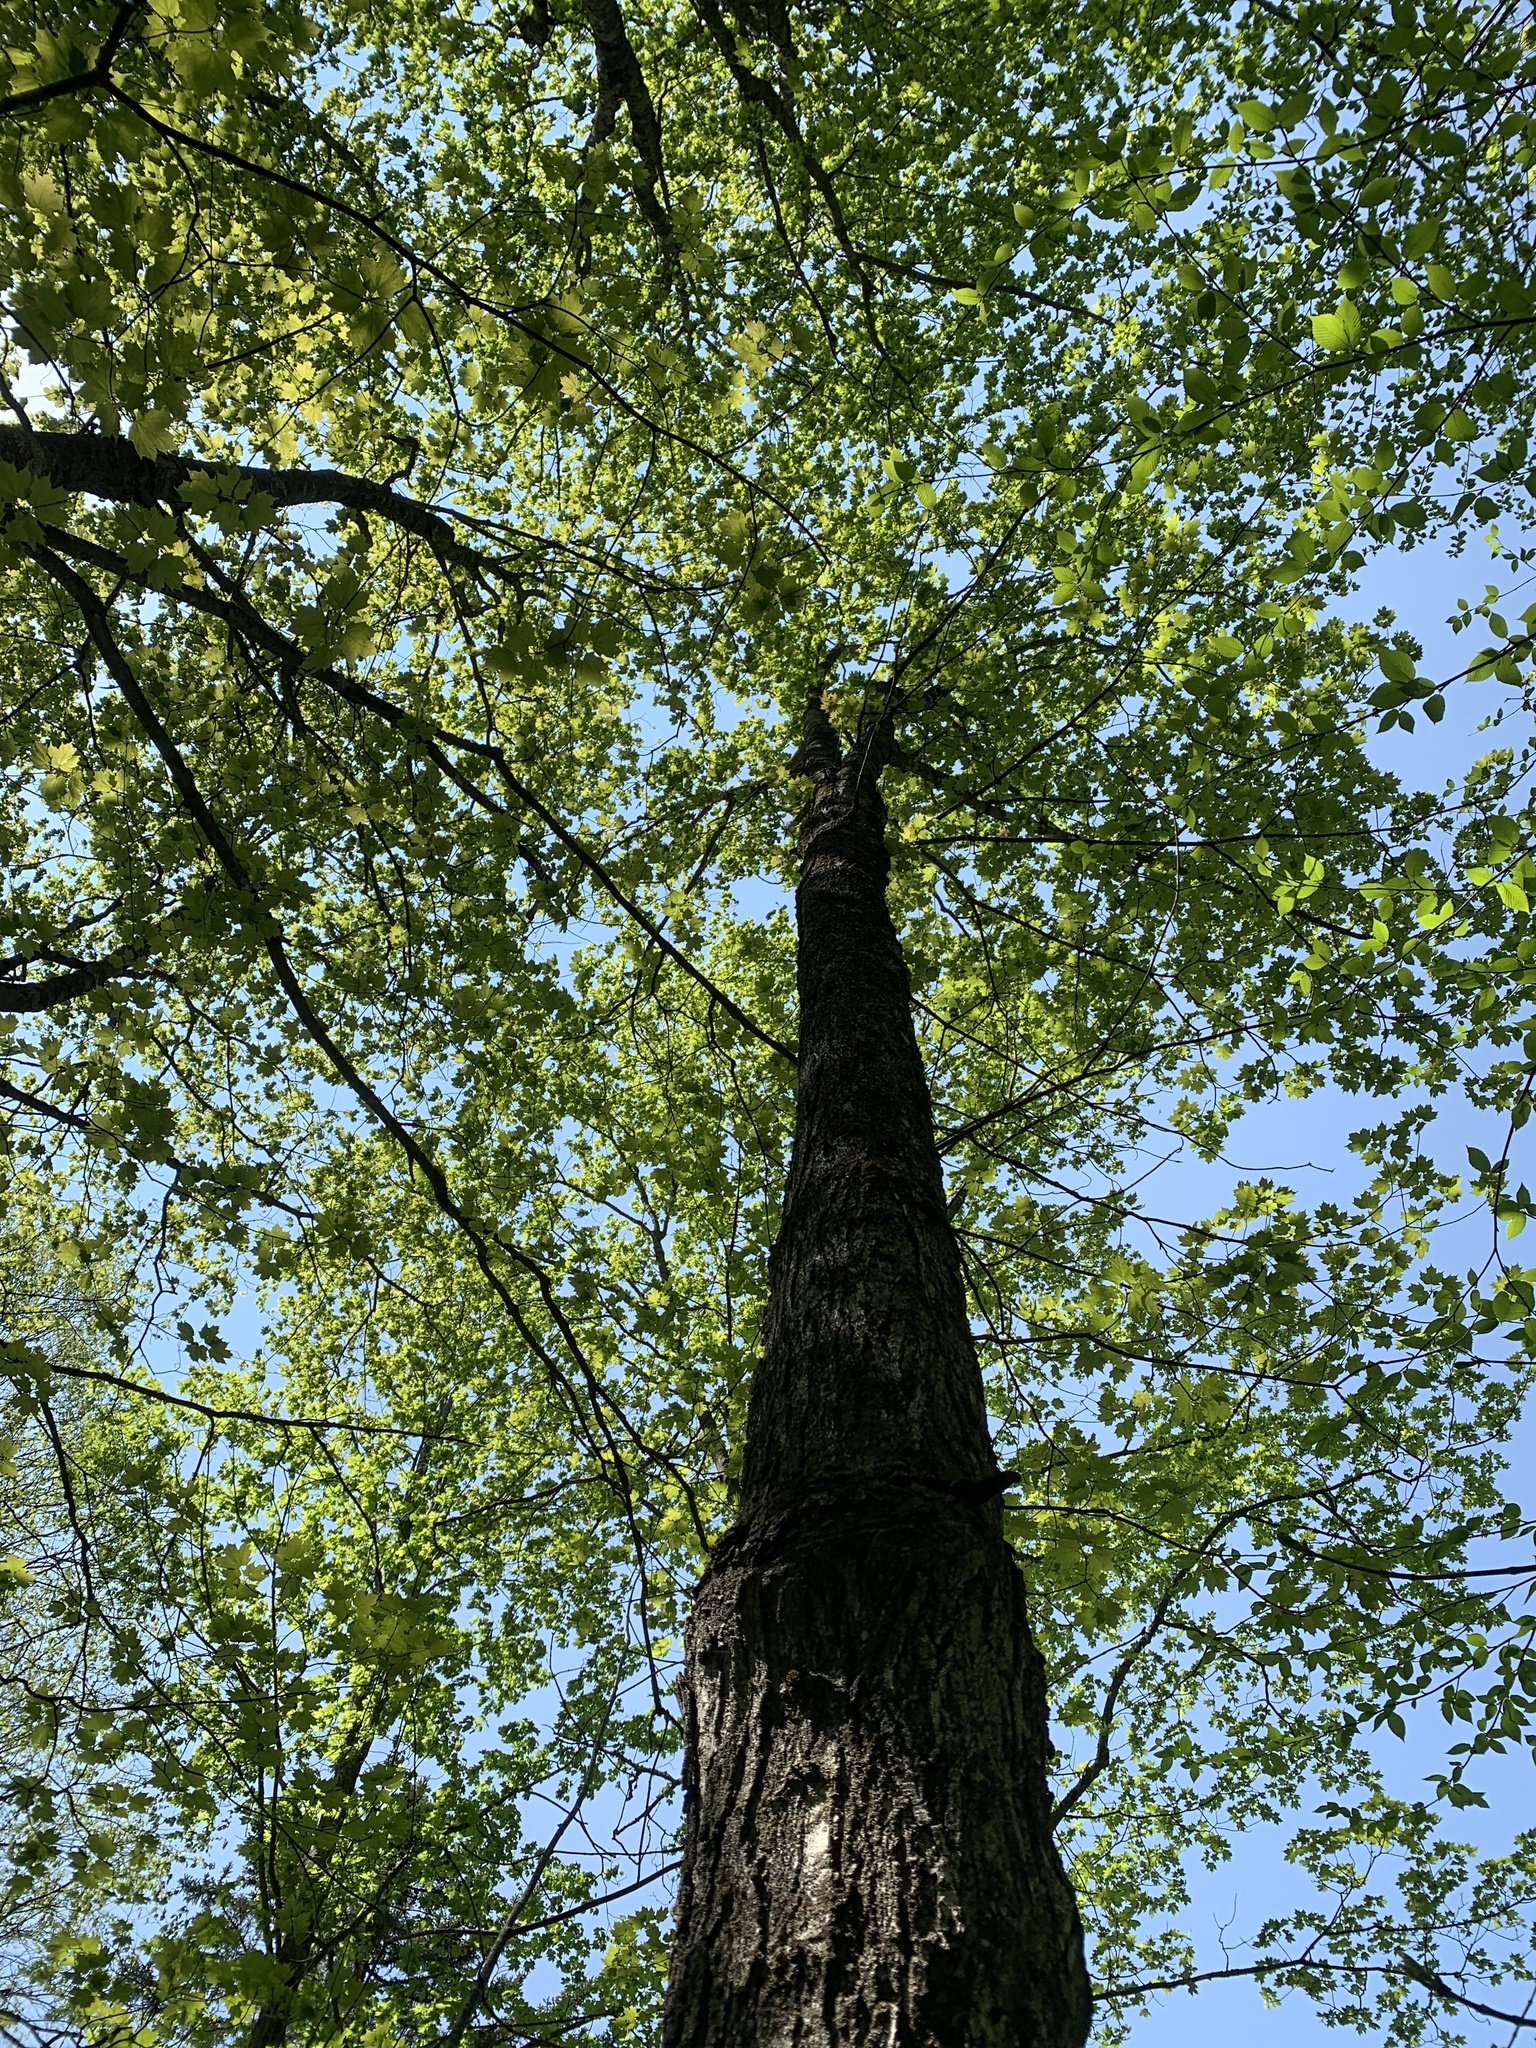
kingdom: Plantae
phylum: Tracheophyta
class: Magnoliopsida
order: Sapindales
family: Sapindaceae
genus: Acer
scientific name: Acer saccharum
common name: Sugar maple
